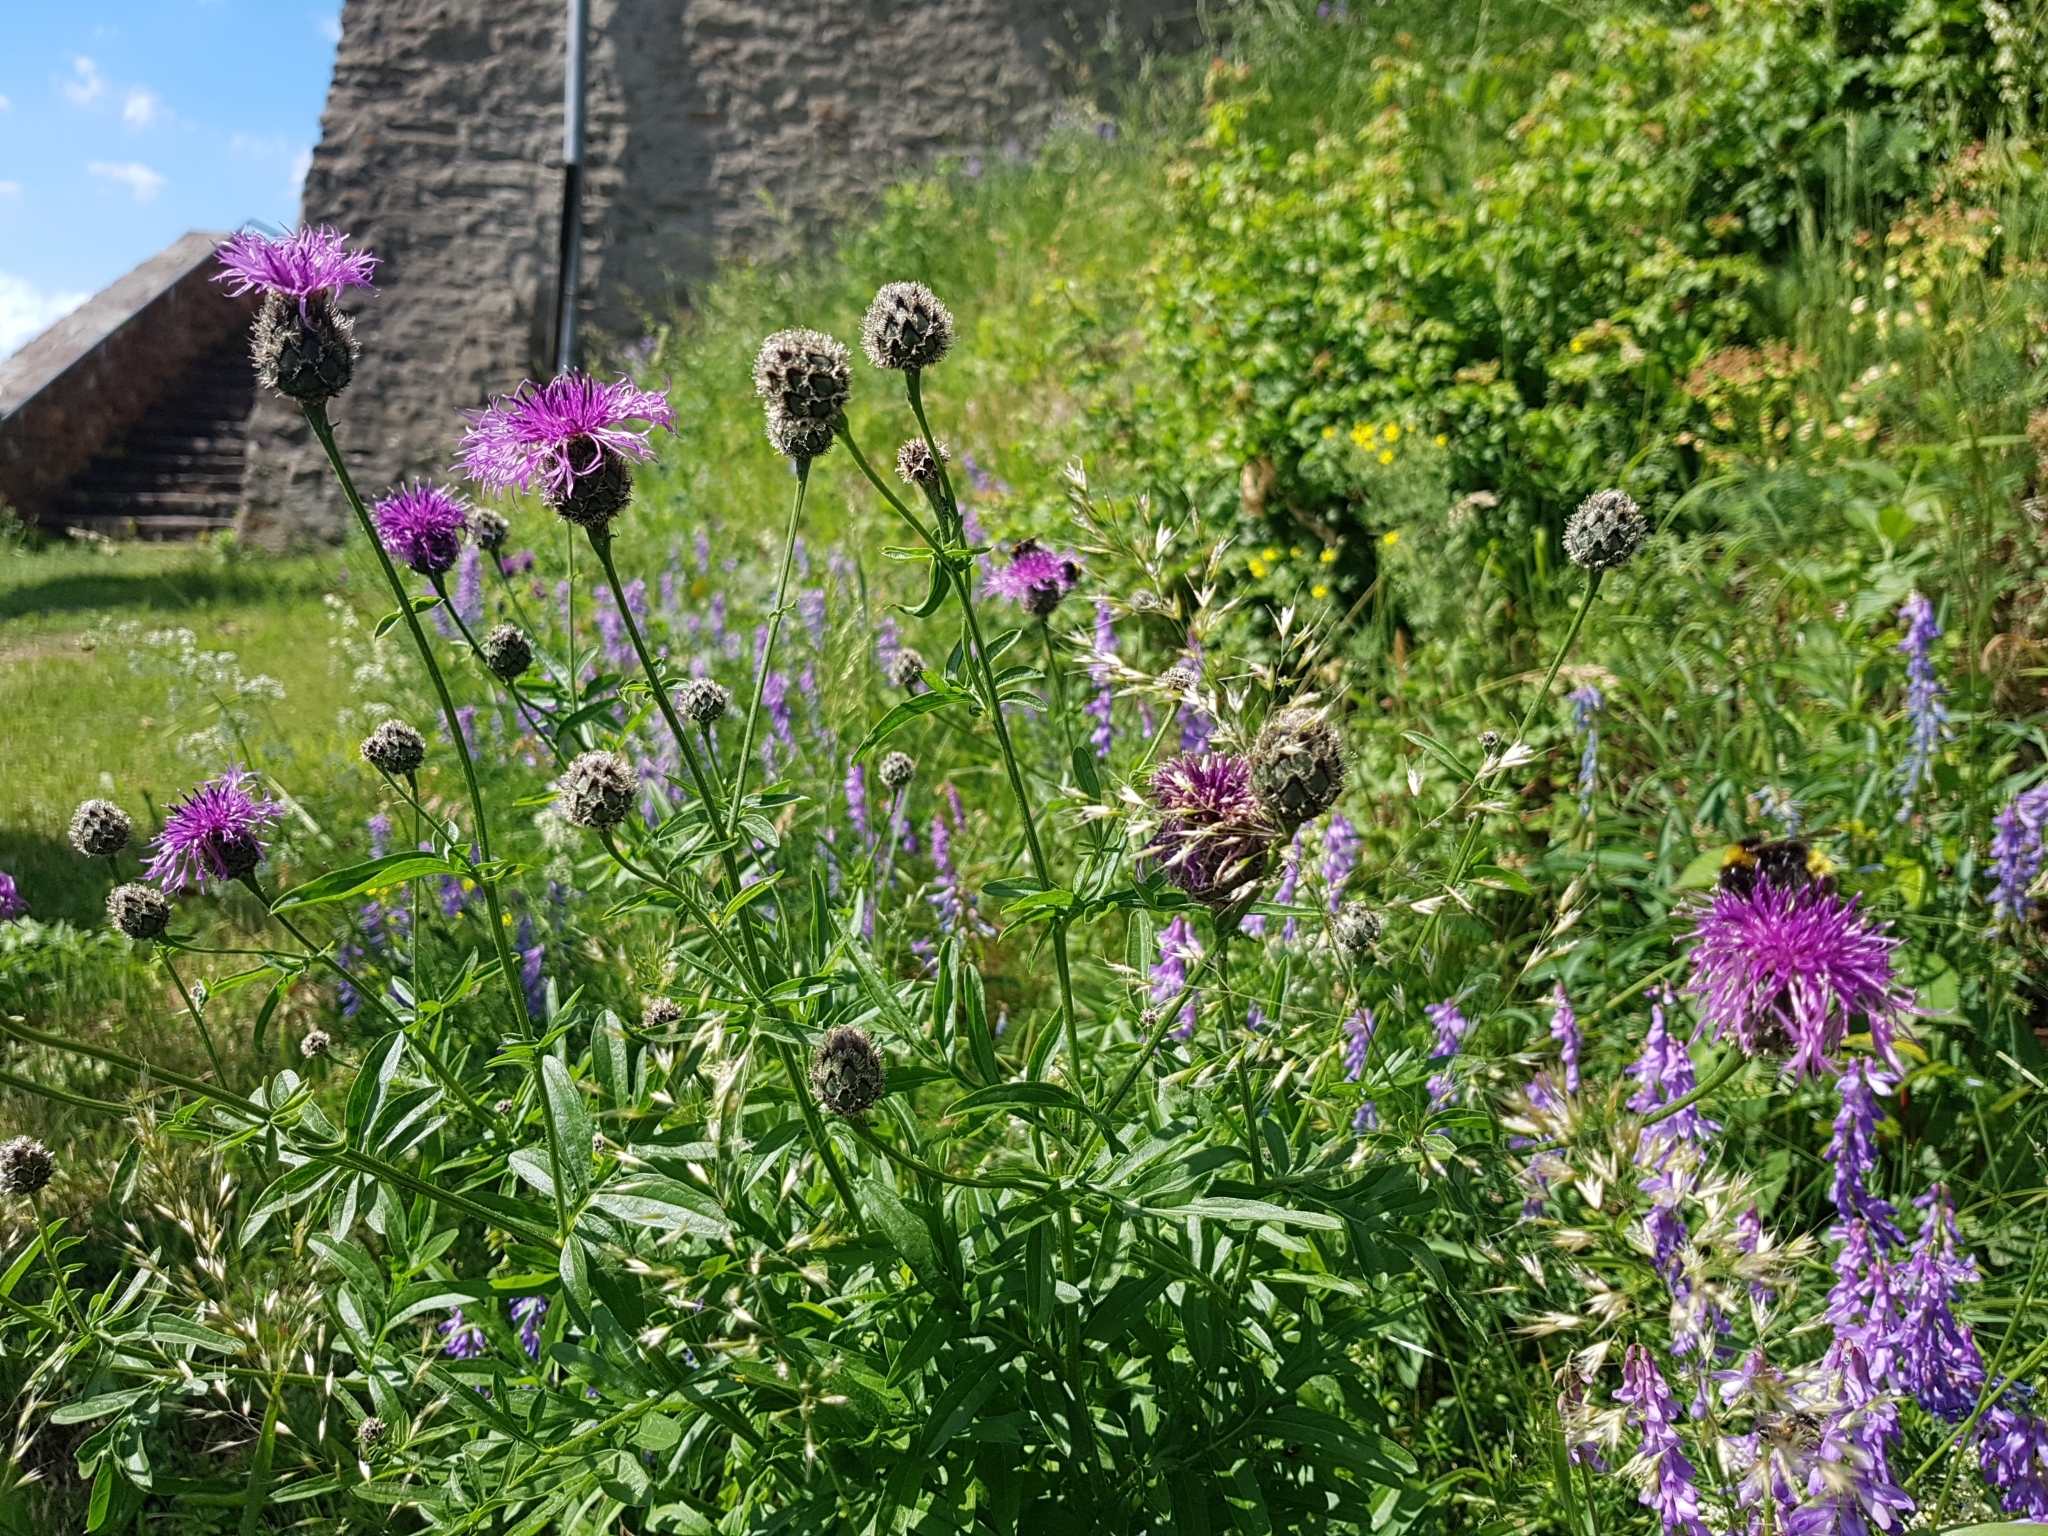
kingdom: Plantae
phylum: Tracheophyta
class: Magnoliopsida
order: Asterales
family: Asteraceae
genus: Centaurea
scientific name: Centaurea scabiosa
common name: Greater knapweed
